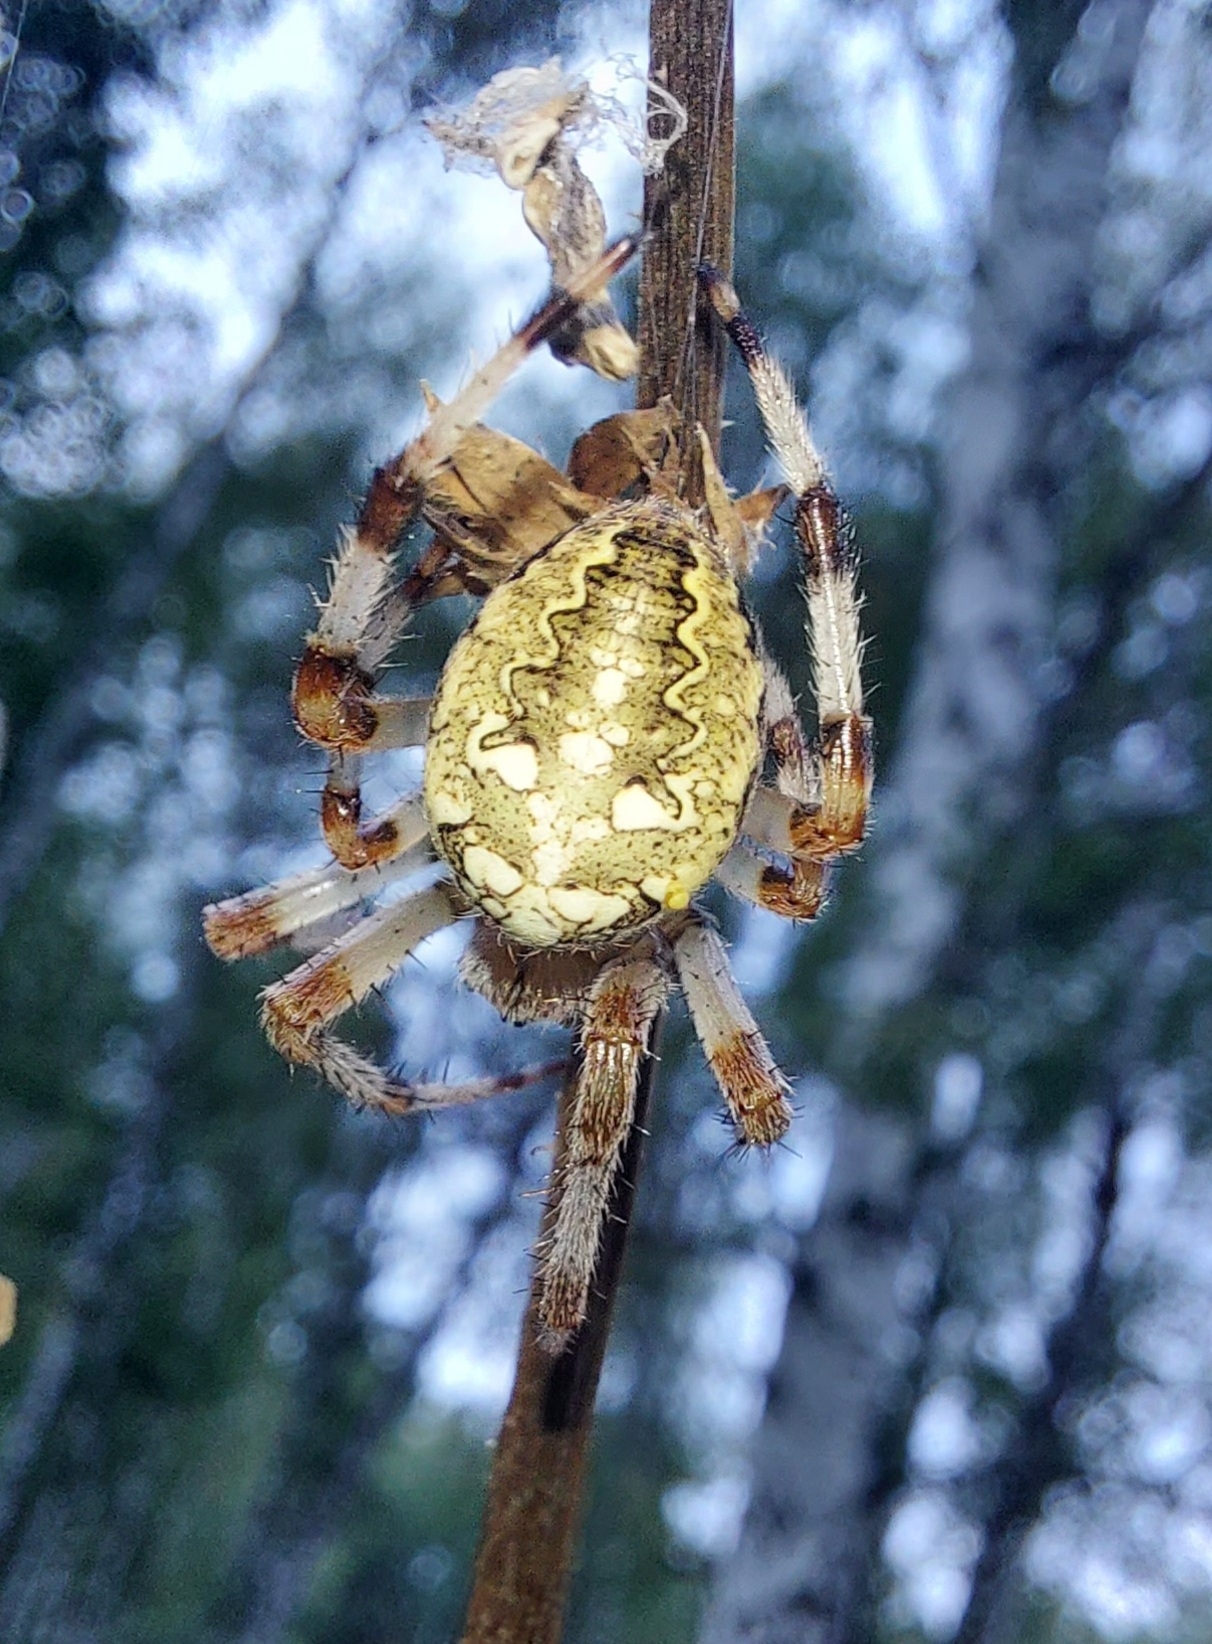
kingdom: Animalia
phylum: Arthropoda
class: Arachnida
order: Araneae
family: Araneidae
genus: Araneus
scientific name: Araneus marmoreus
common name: Marbled orbweaver
